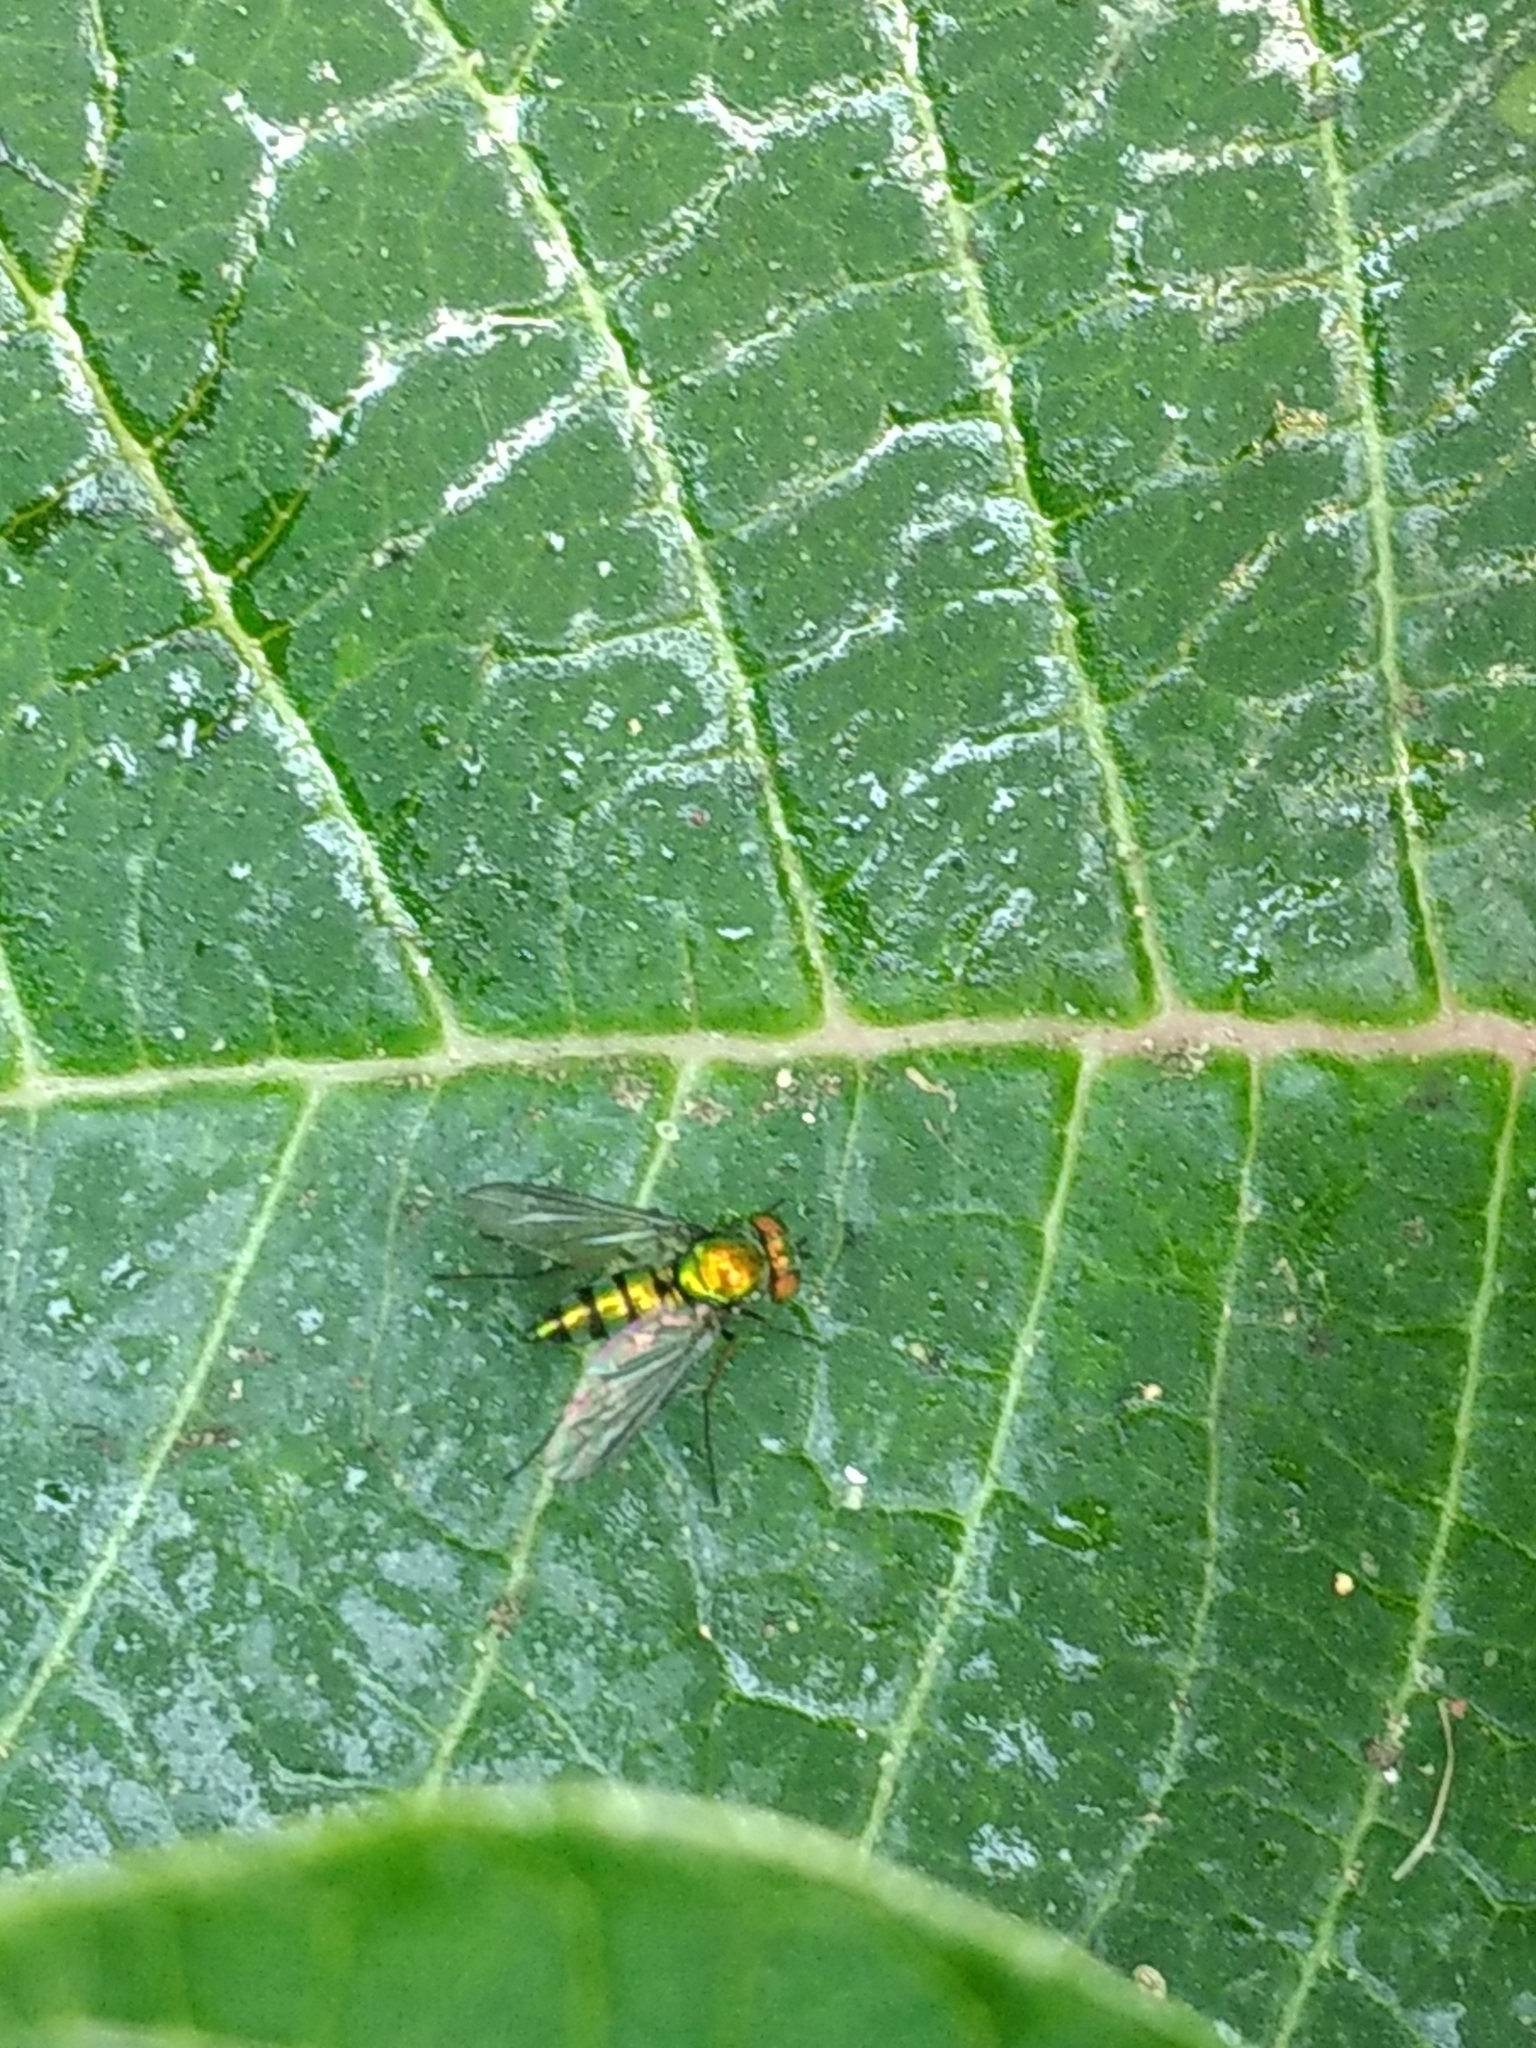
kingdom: Animalia
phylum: Arthropoda
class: Insecta
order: Diptera
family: Dolichopodidae
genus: Condylostylus
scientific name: Condylostylus longicornis
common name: Long-legged fly
